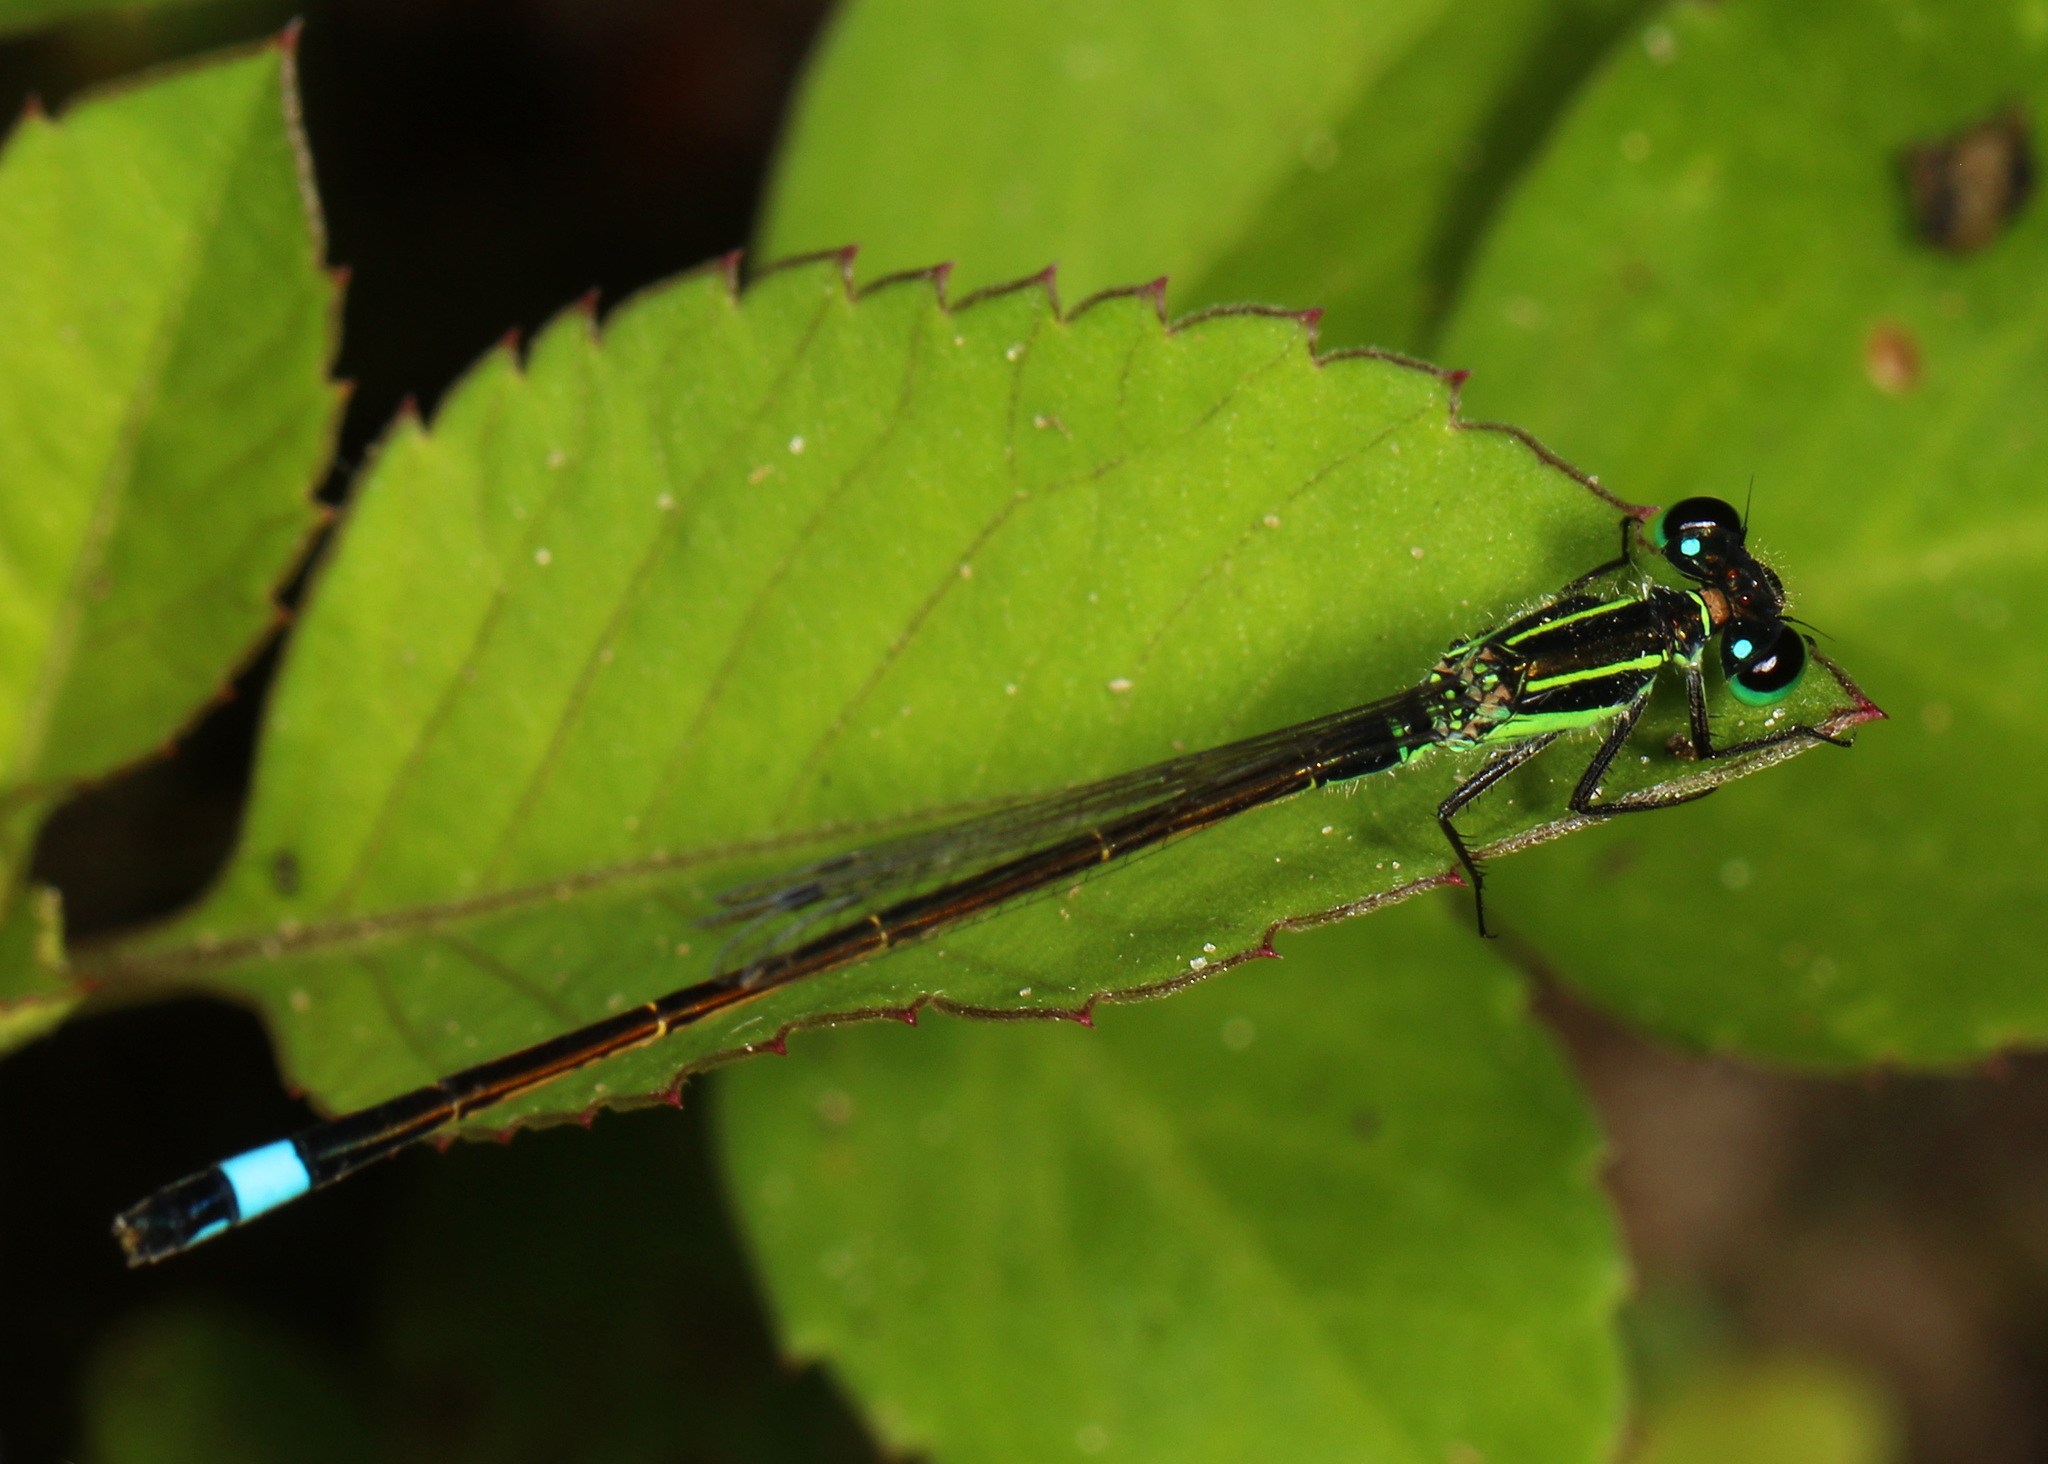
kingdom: Animalia
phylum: Arthropoda
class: Insecta
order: Odonata
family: Coenagrionidae
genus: Ischnura
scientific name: Ischnura ramburii
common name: Rambur's forktail
